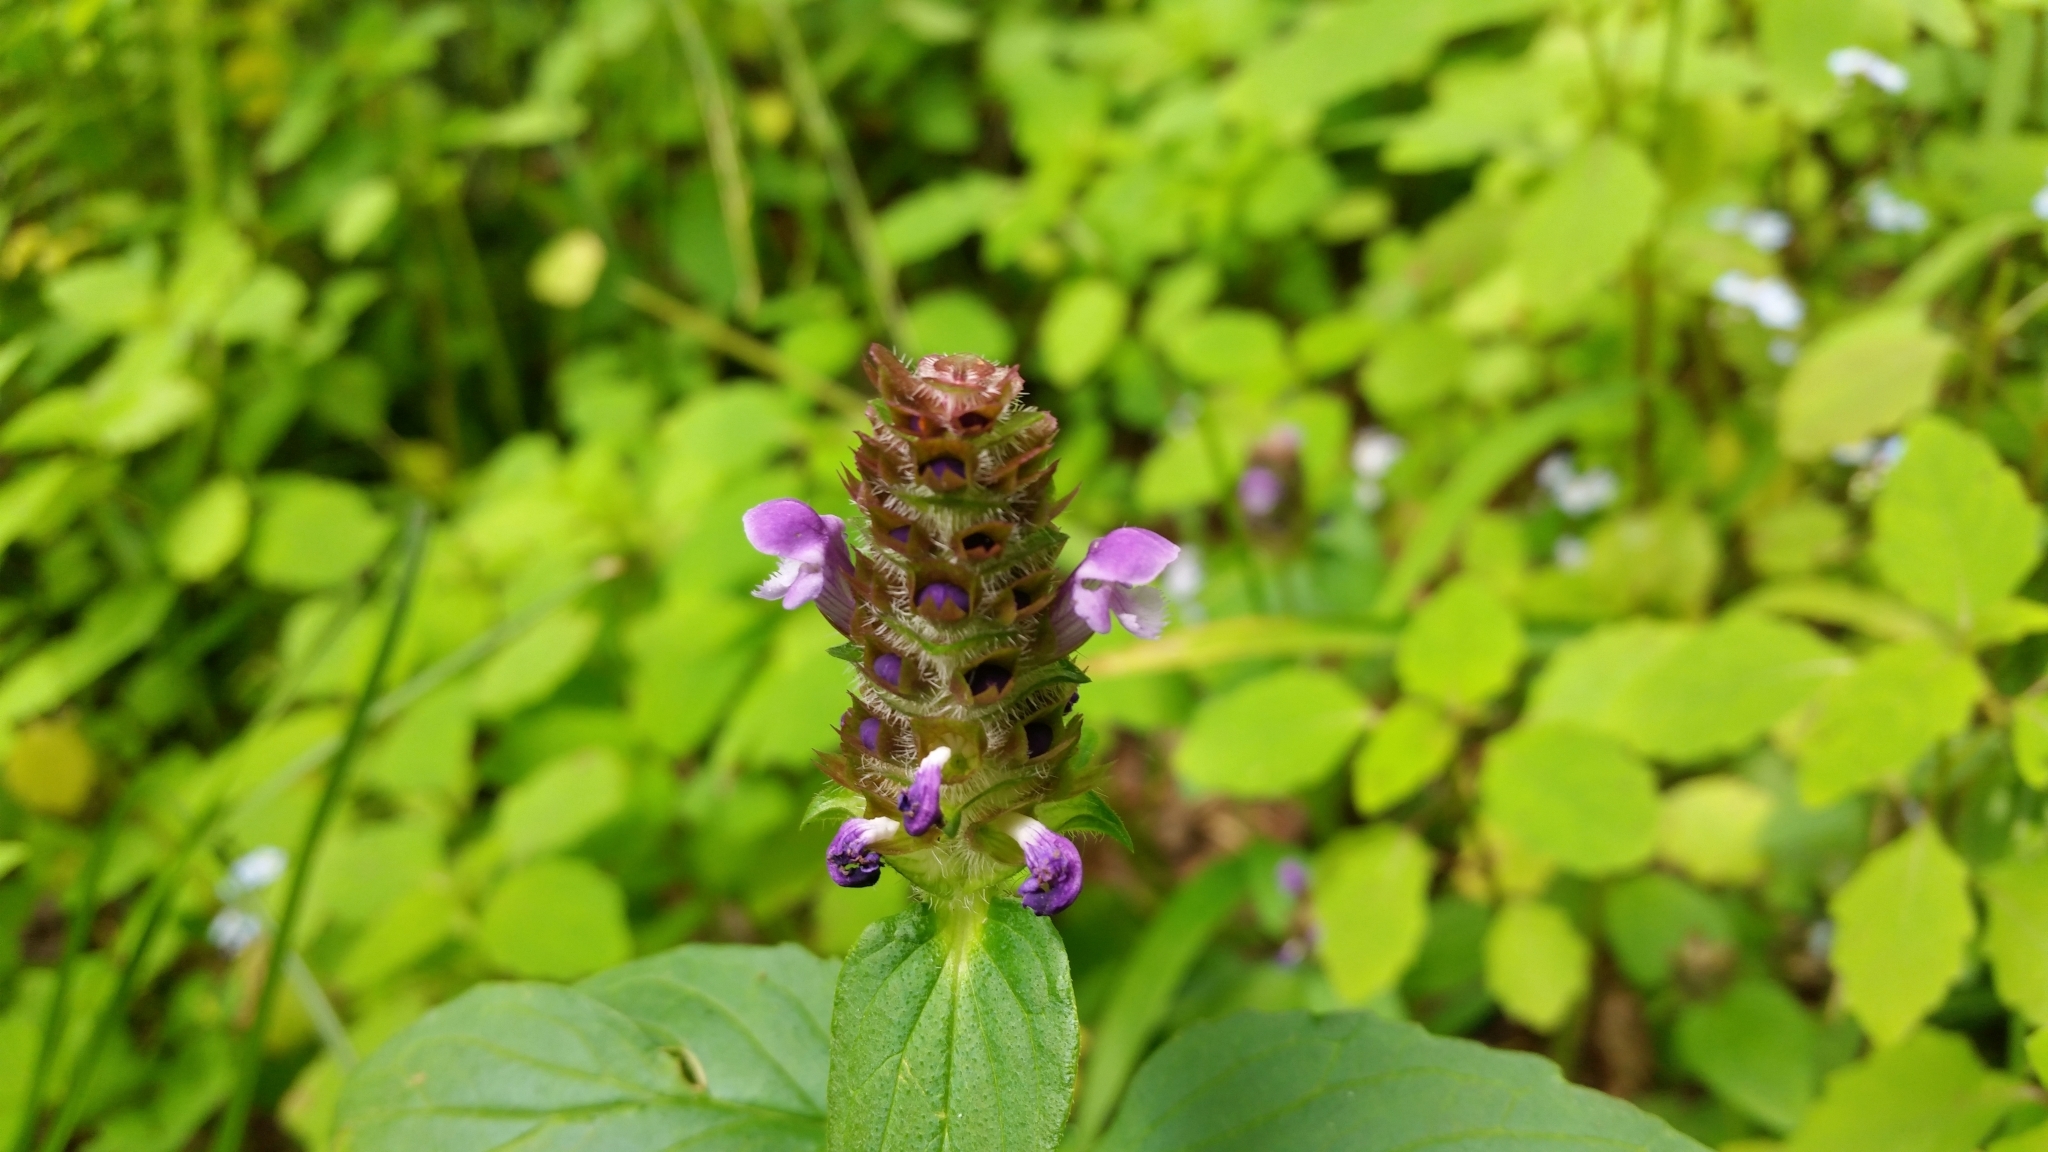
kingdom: Plantae
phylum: Tracheophyta
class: Magnoliopsida
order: Lamiales
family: Lamiaceae
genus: Prunella
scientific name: Prunella vulgaris
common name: Heal-all
